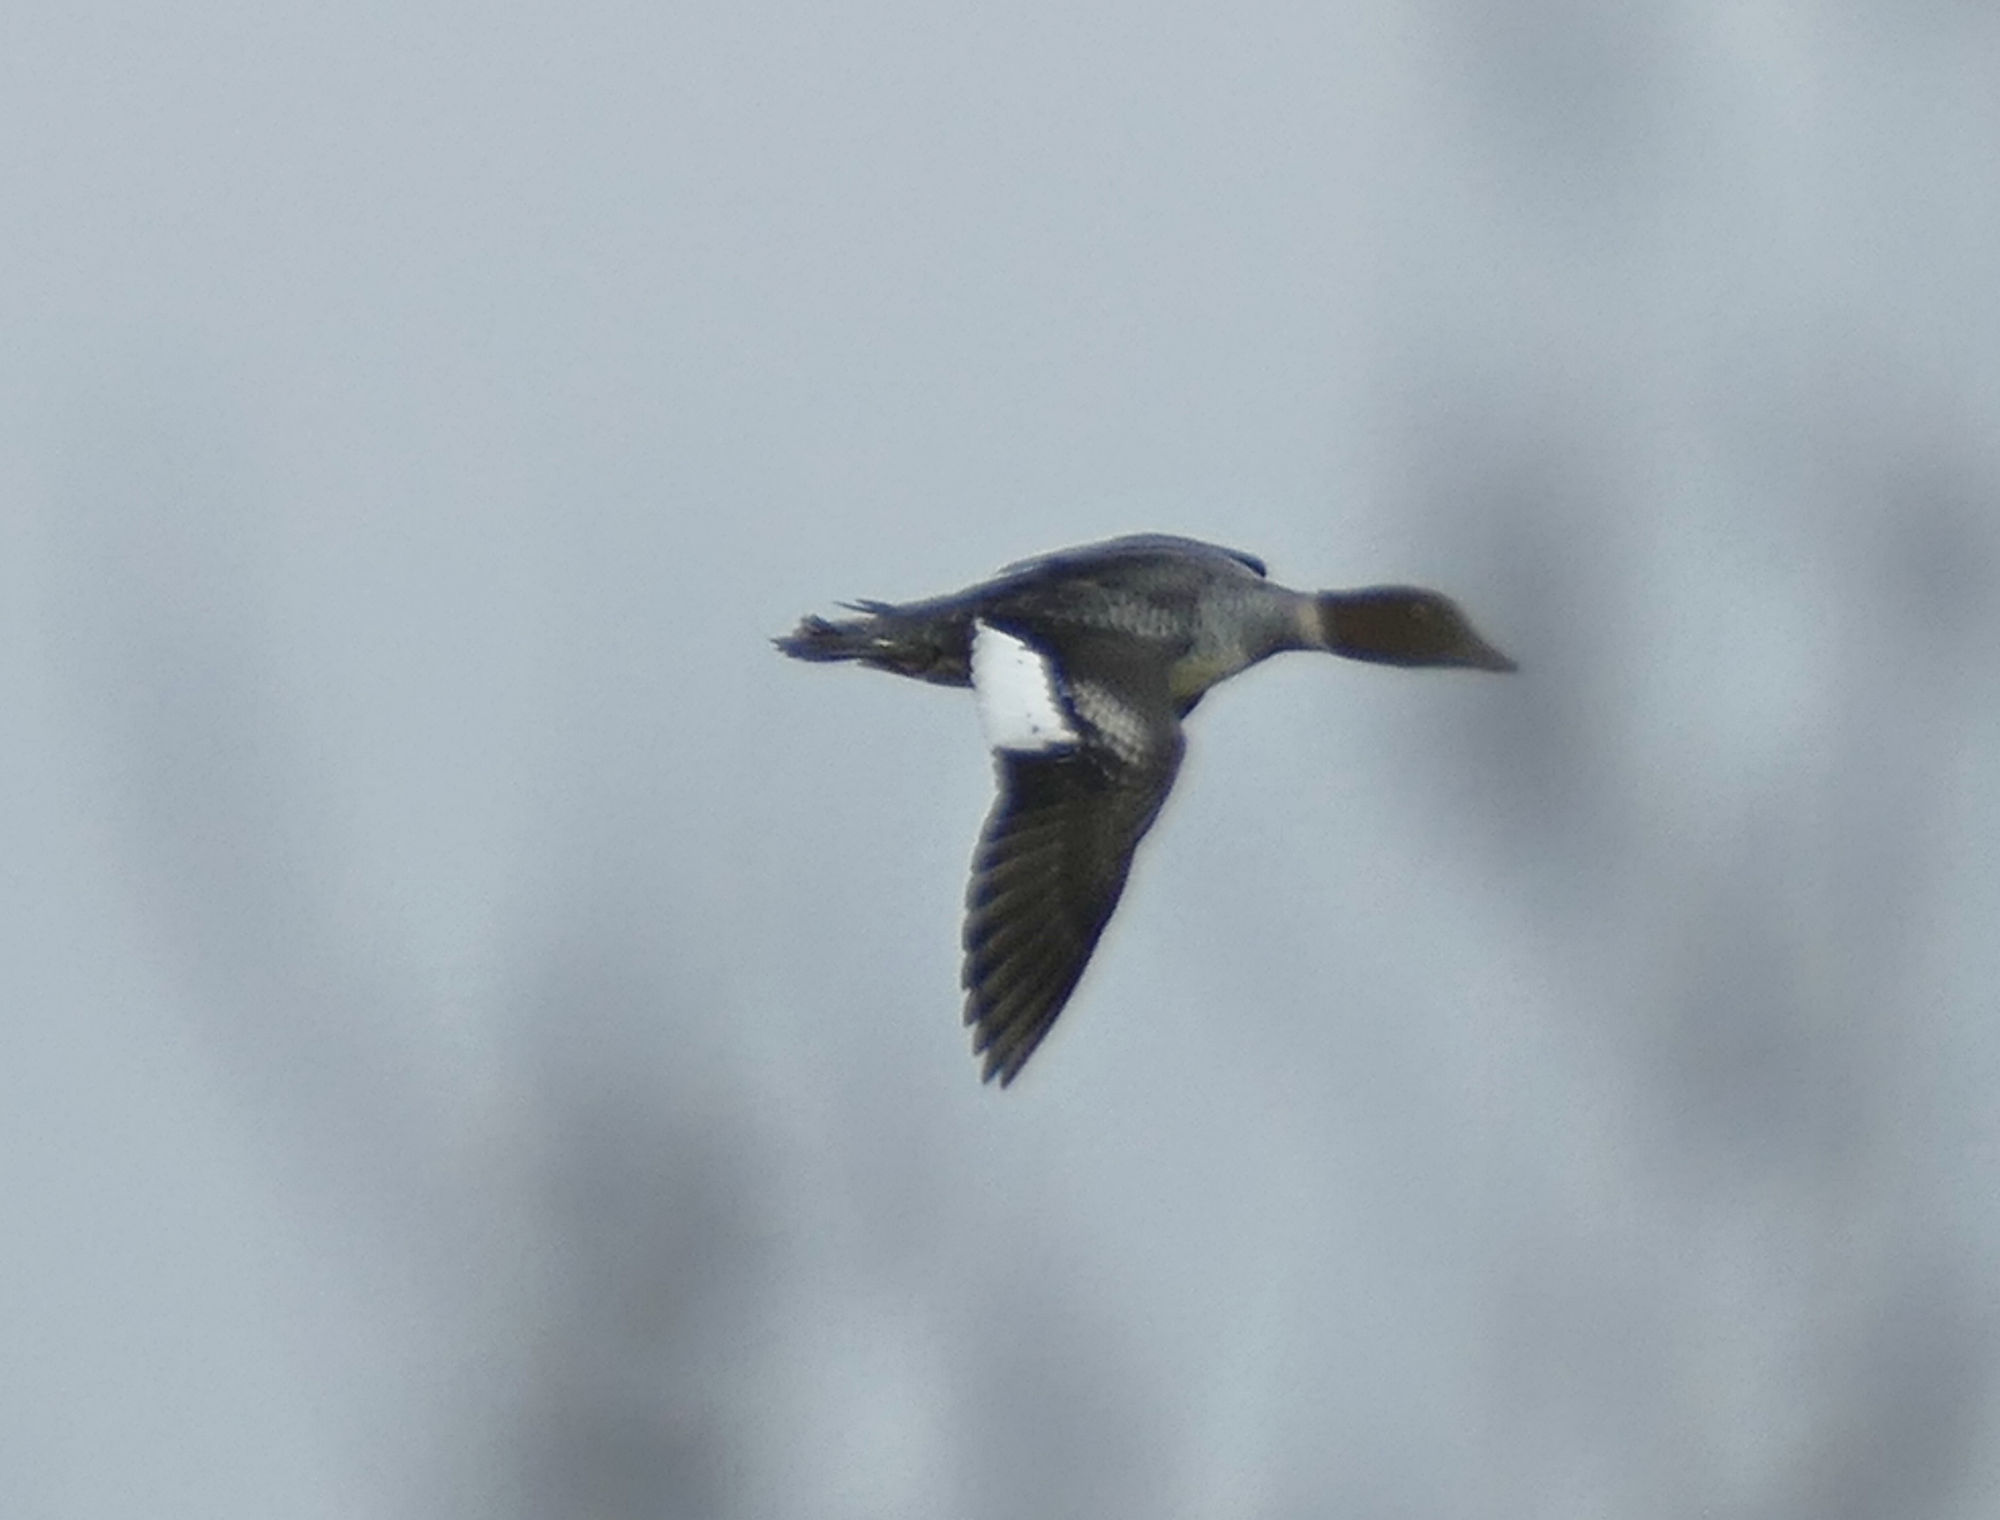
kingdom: Animalia
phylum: Chordata
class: Aves
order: Anseriformes
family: Anatidae
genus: Bucephala
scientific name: Bucephala clangula
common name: Common goldeneye
